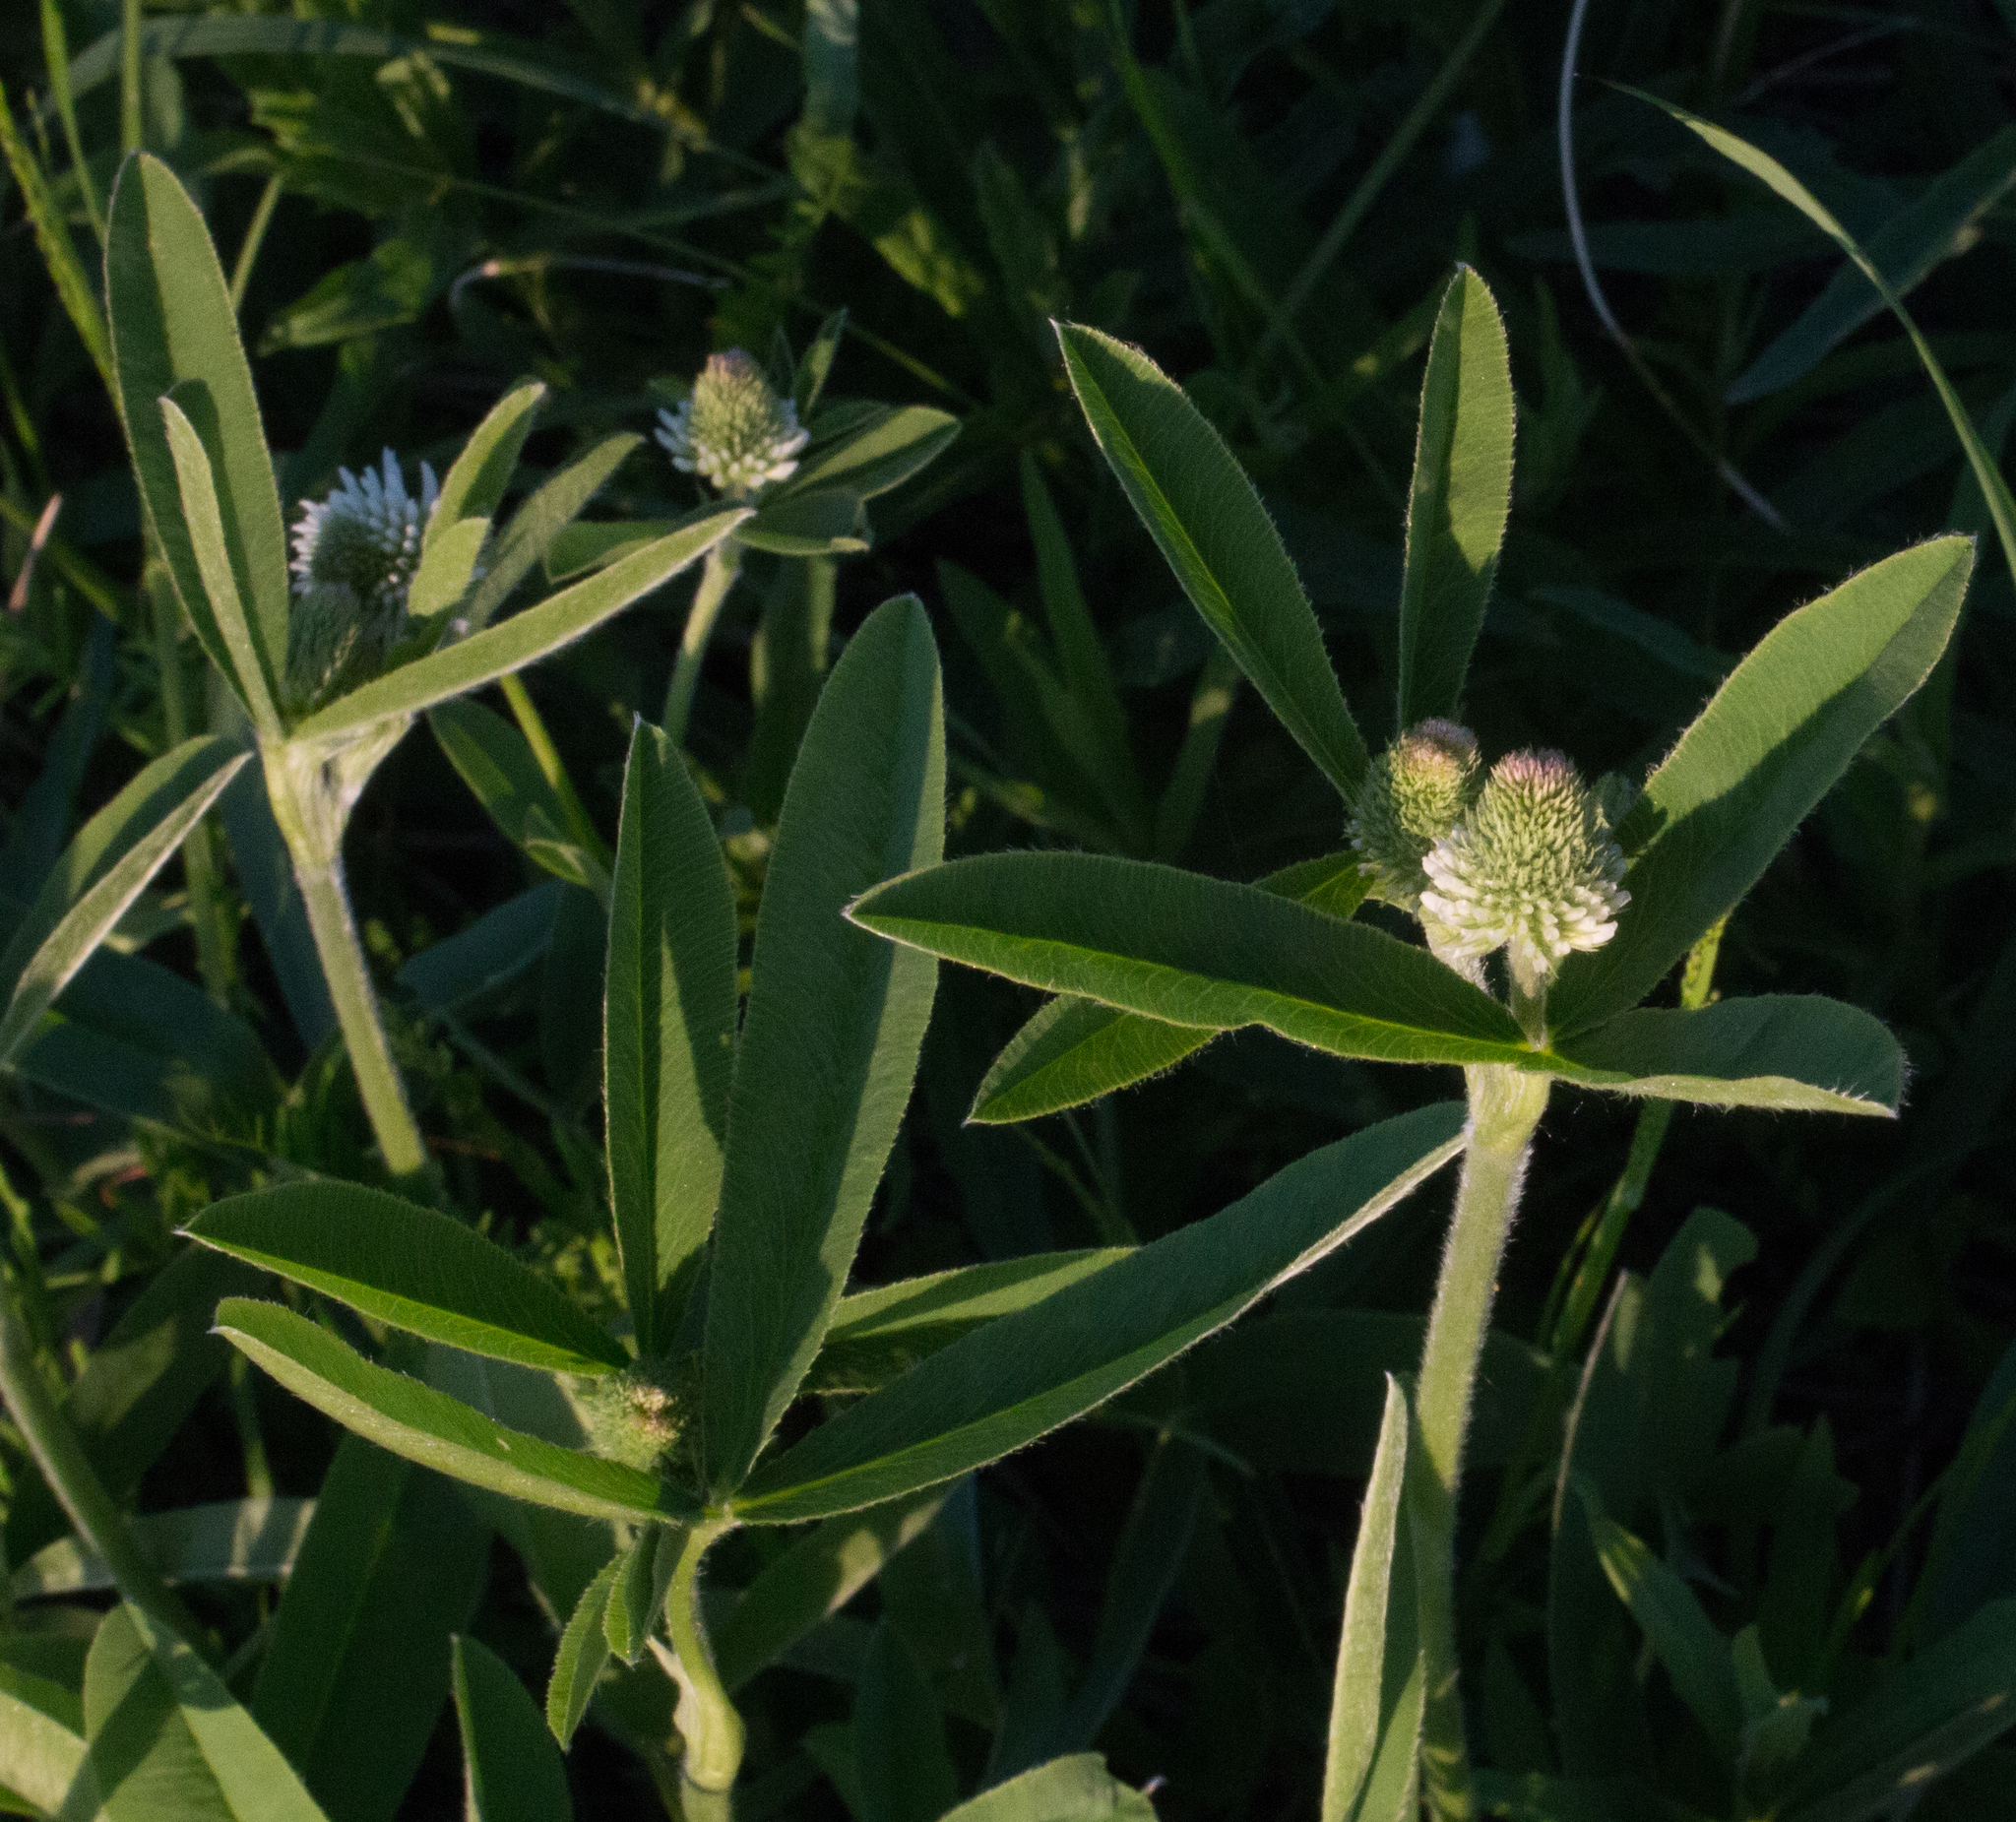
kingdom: Plantae
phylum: Tracheophyta
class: Magnoliopsida
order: Fabales
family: Fabaceae
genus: Trifolium
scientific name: Trifolium montanum
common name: Mountain clover
